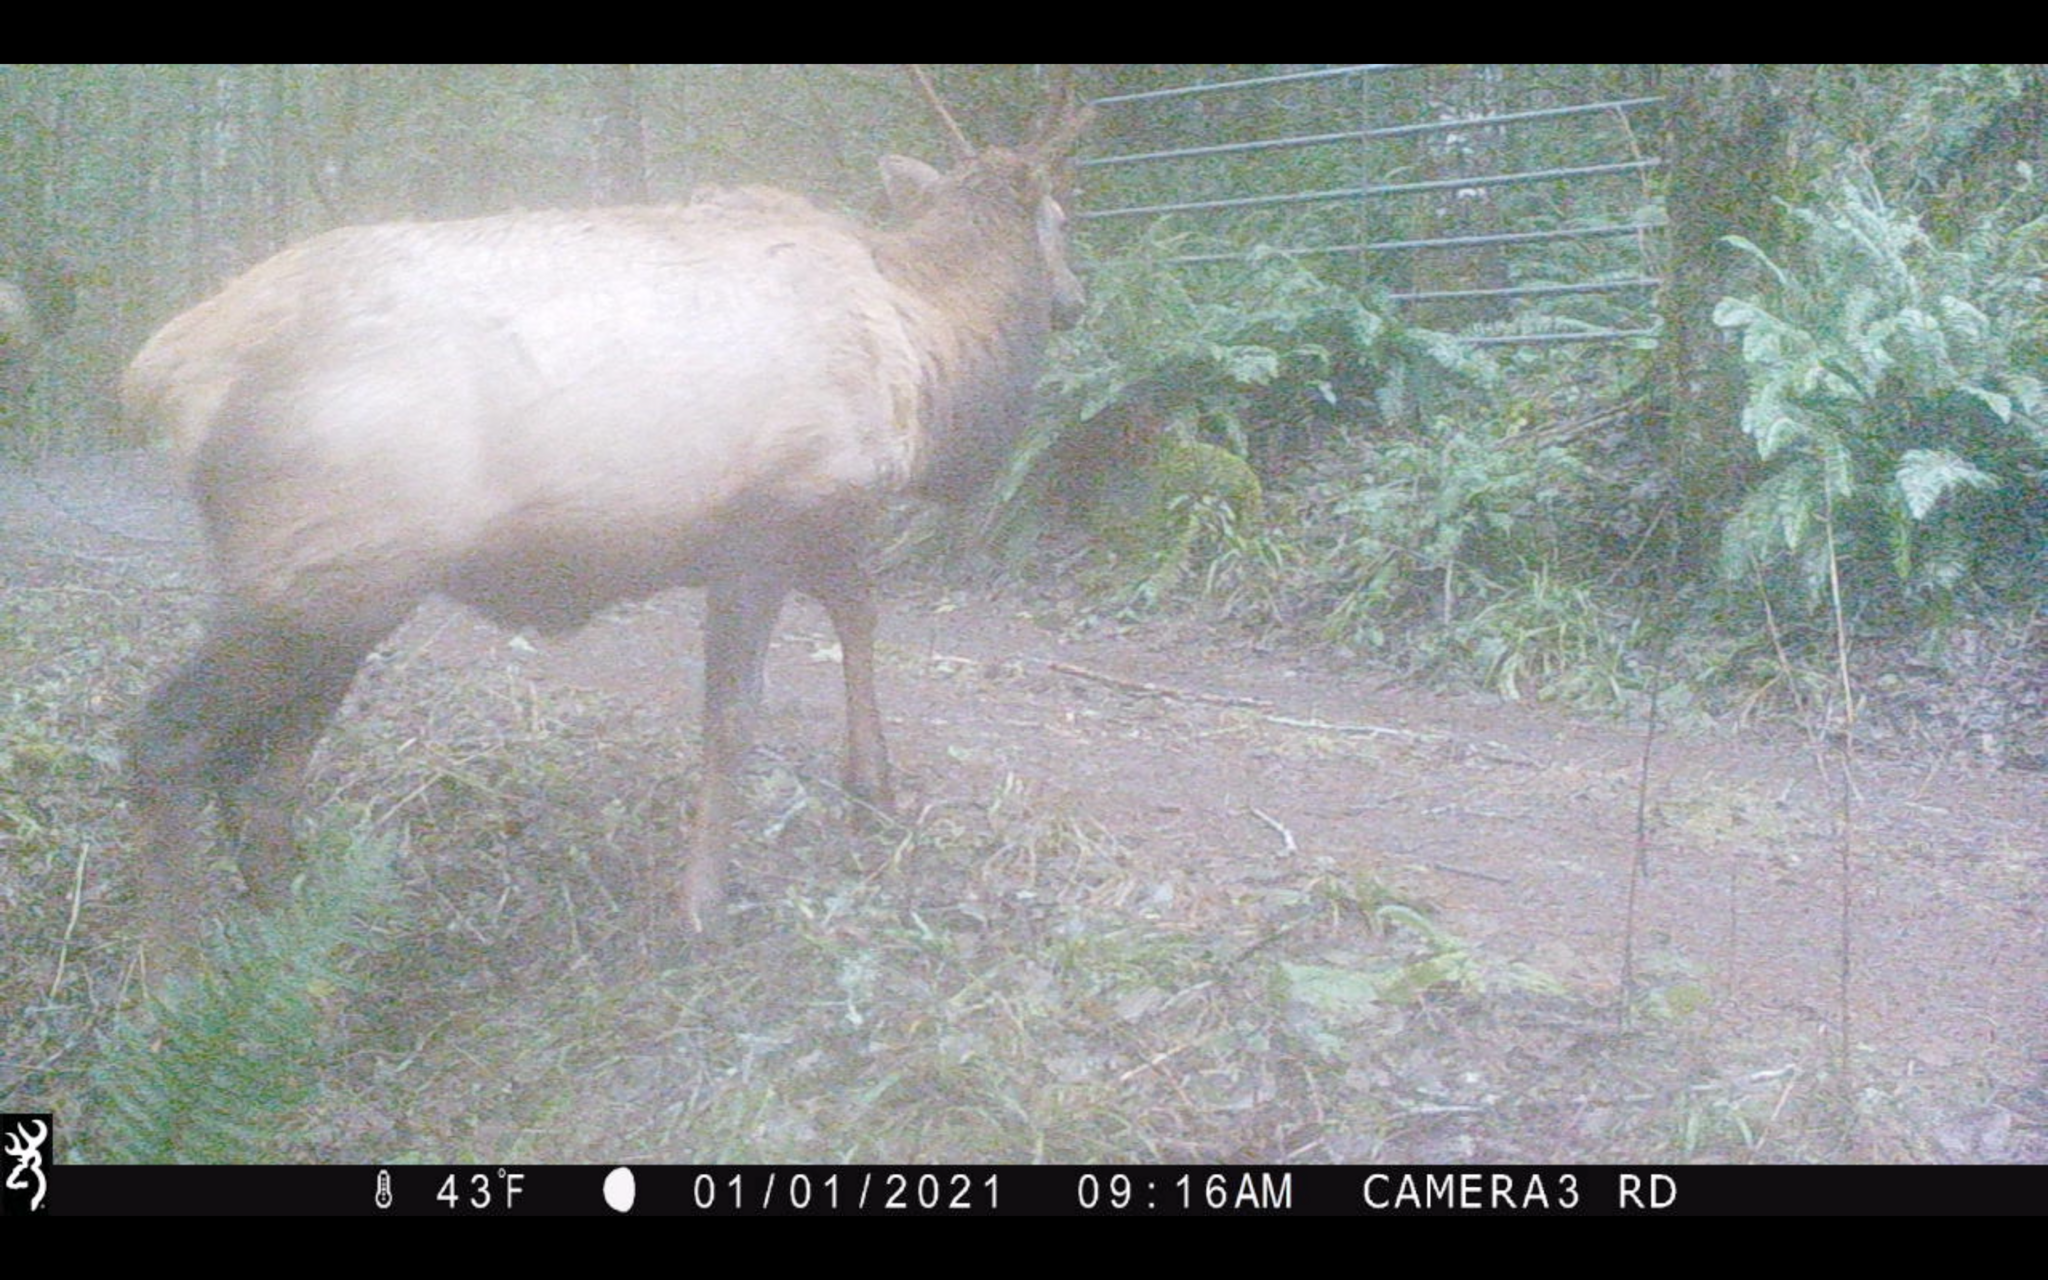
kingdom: Animalia
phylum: Chordata
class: Mammalia
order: Artiodactyla
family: Cervidae
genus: Cervus
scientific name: Cervus elaphus
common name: Red deer
